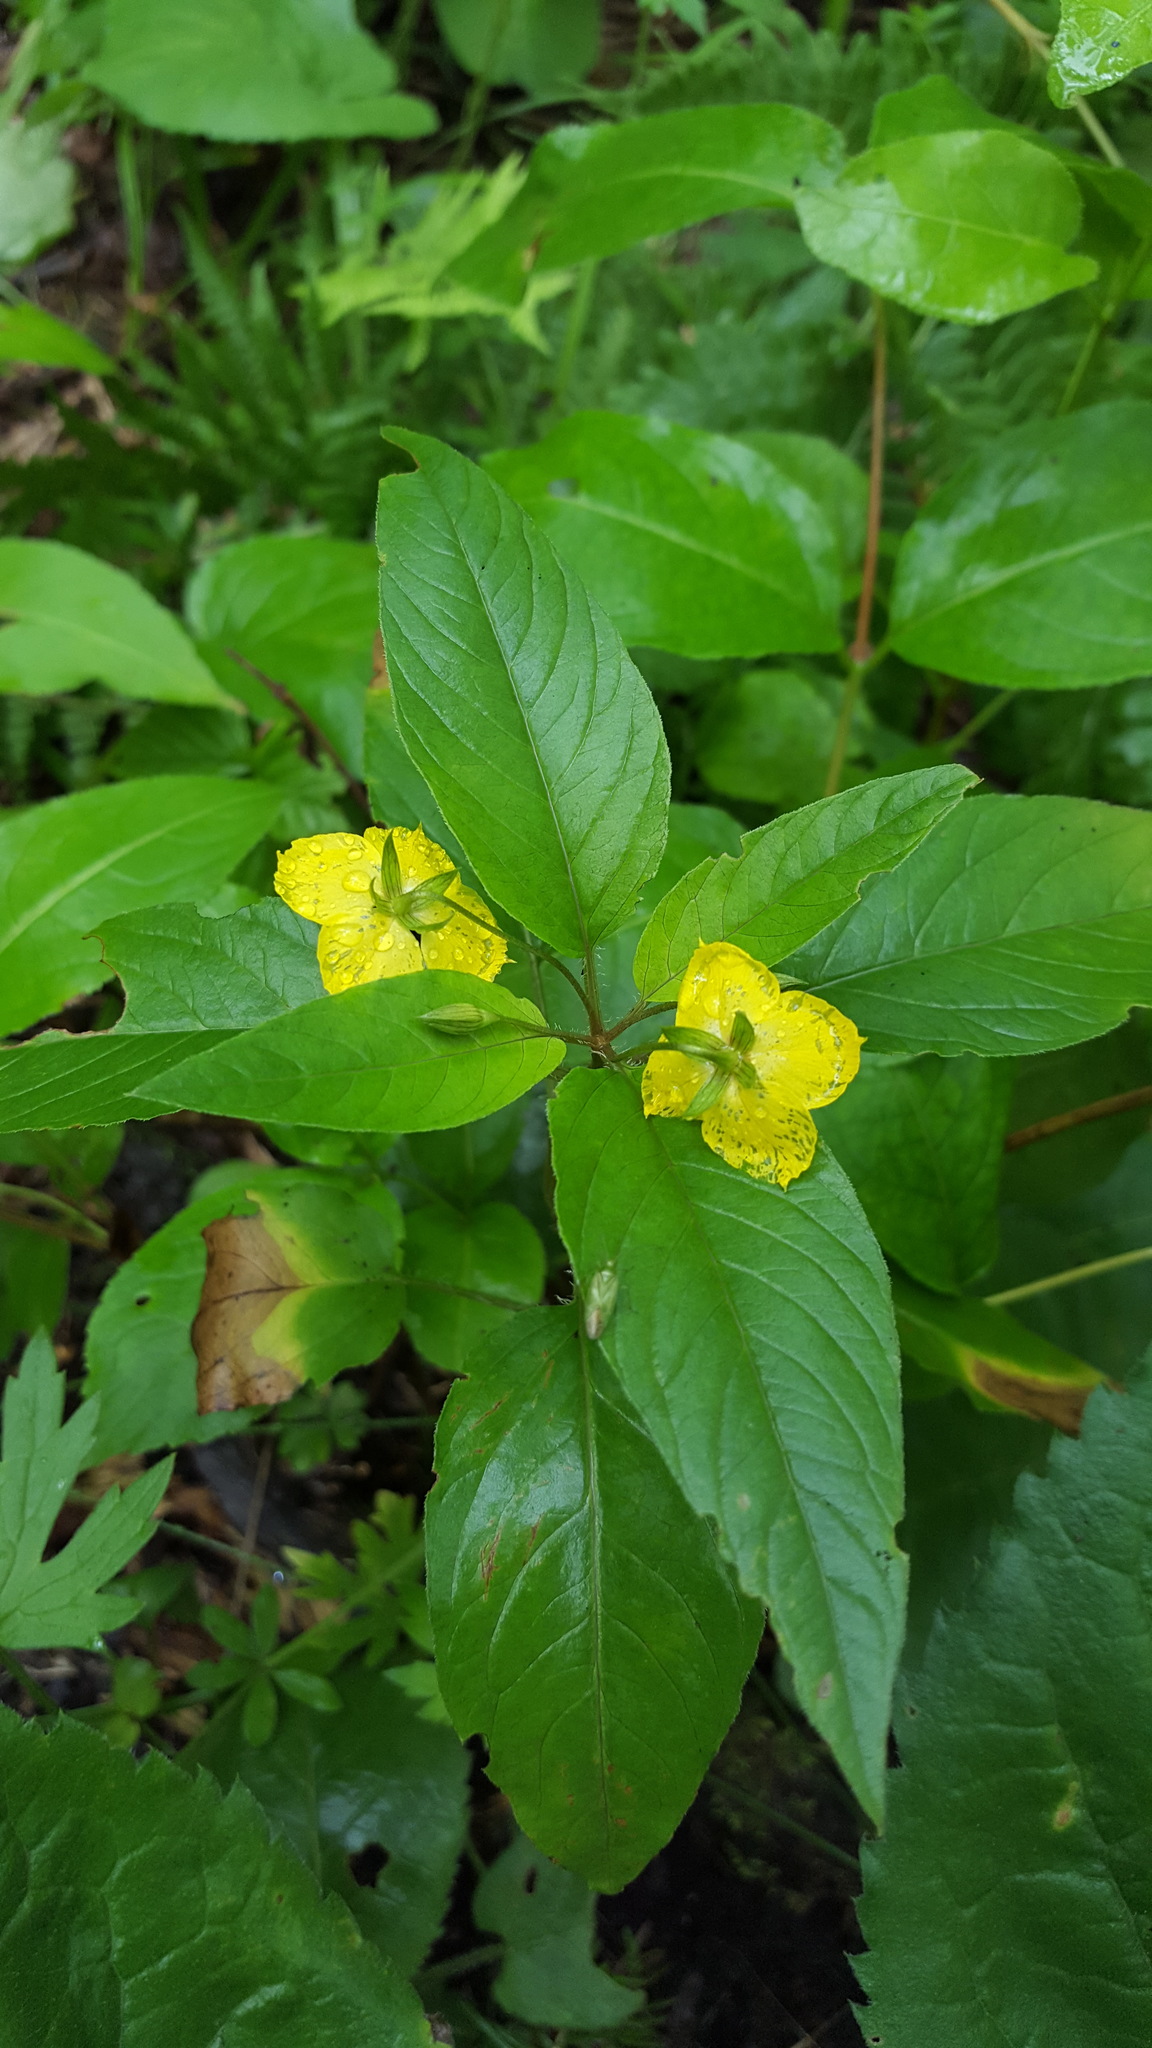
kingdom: Plantae
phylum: Tracheophyta
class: Magnoliopsida
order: Ericales
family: Primulaceae
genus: Lysimachia
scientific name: Lysimachia ciliata
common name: Fringed loosestrife
